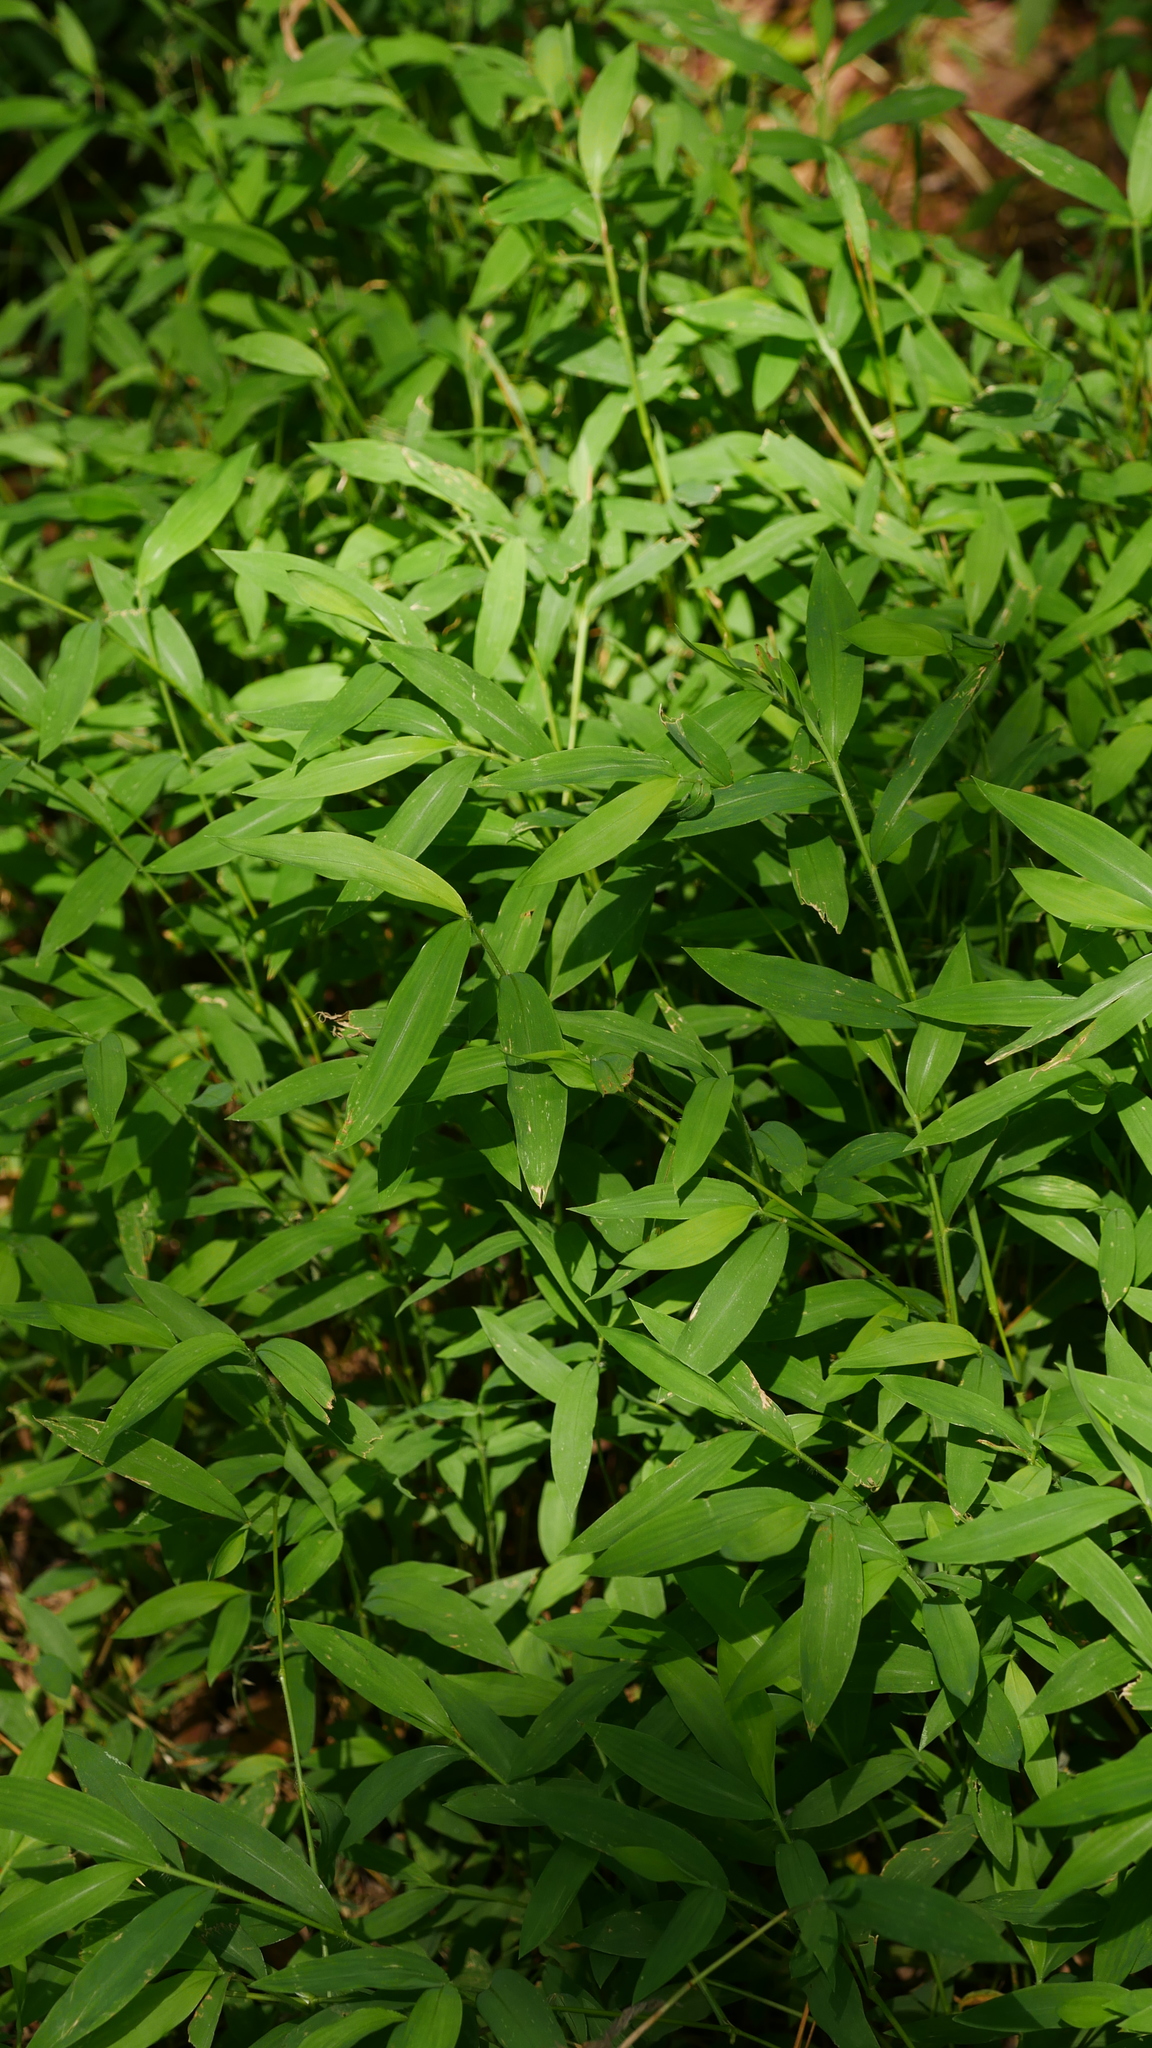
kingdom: Plantae
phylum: Tracheophyta
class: Liliopsida
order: Poales
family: Poaceae
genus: Microstegium
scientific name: Microstegium vimineum
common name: Japanese stiltgrass
